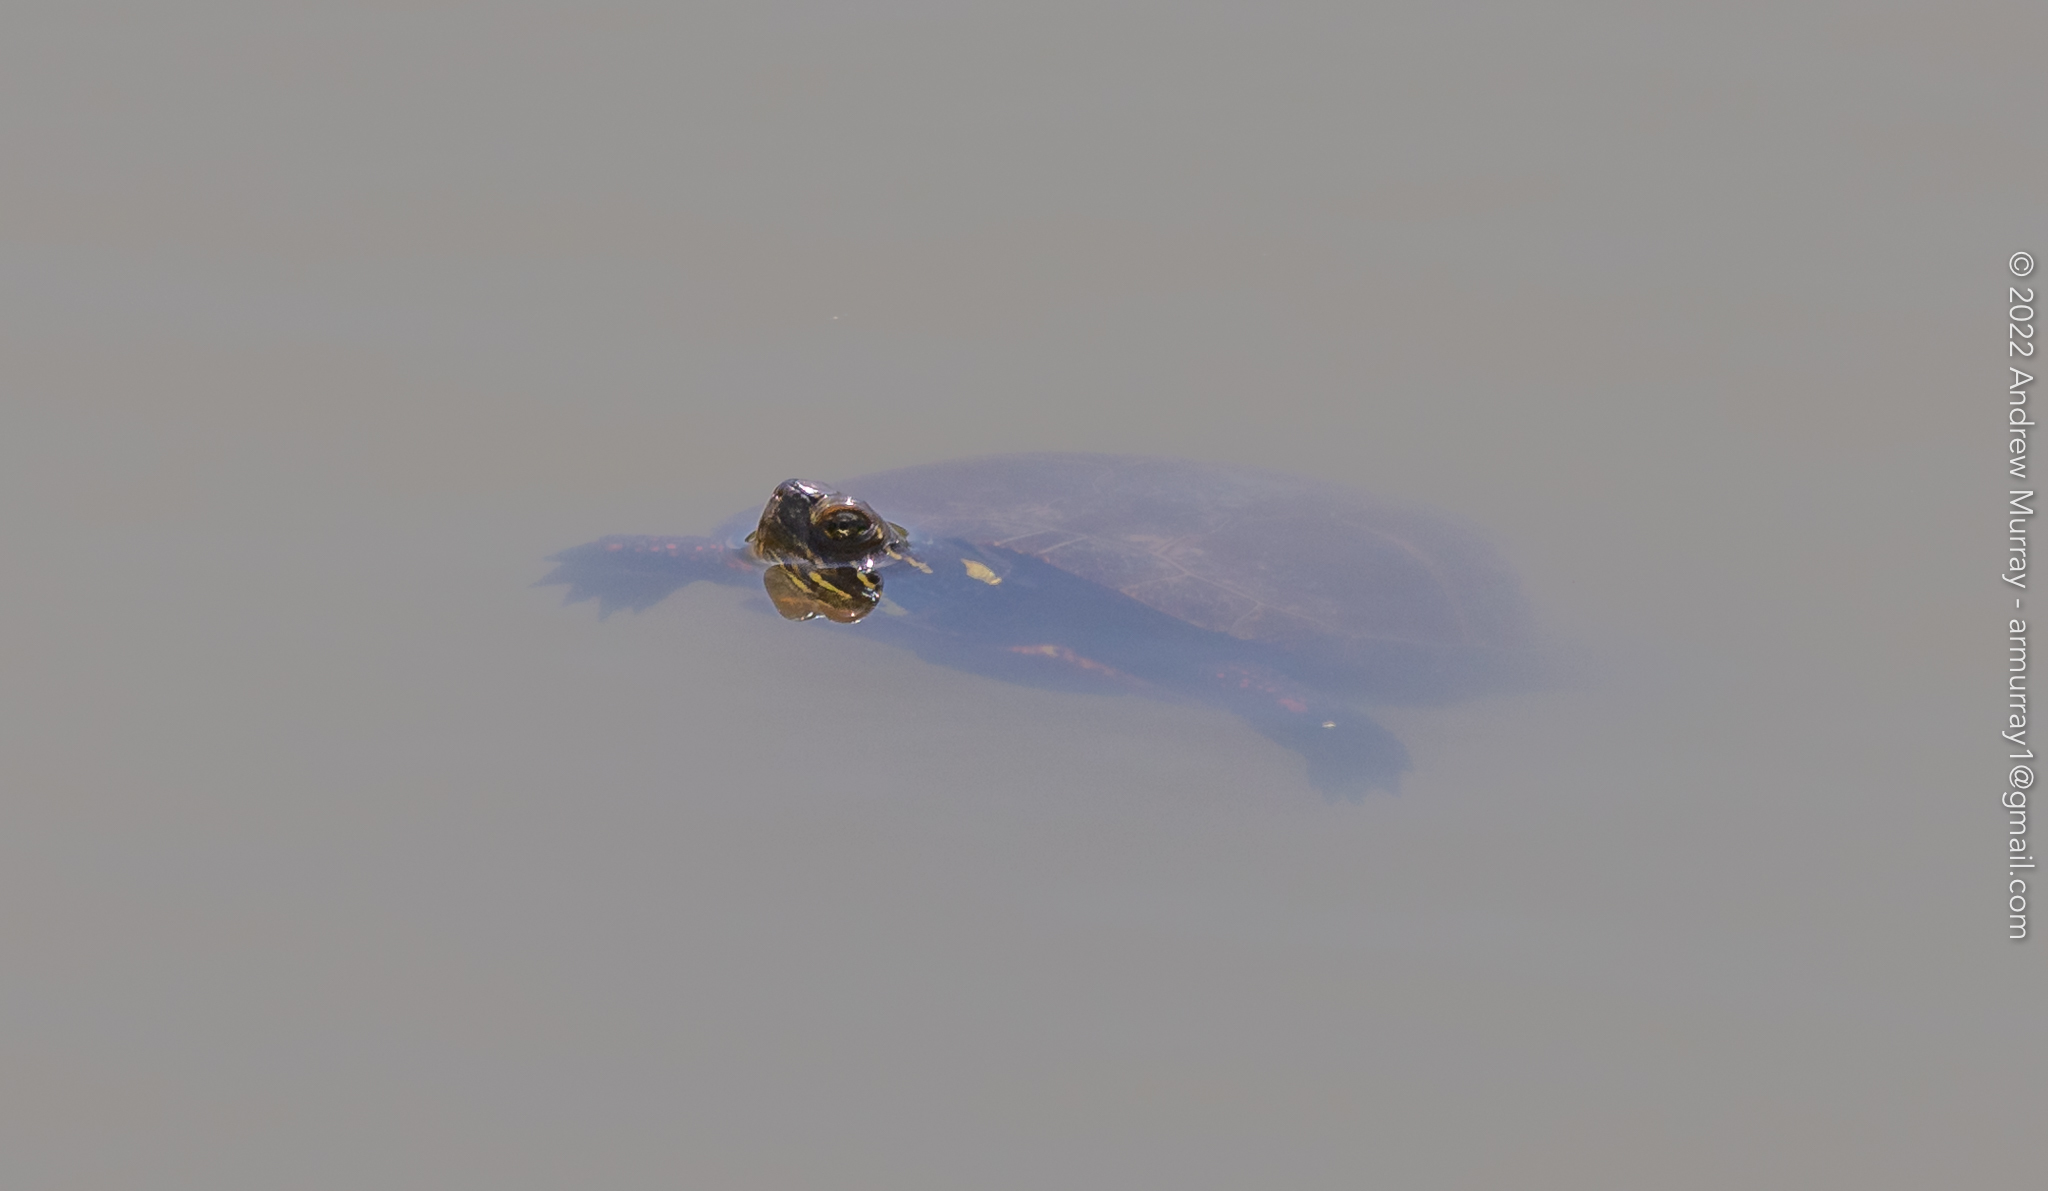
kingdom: Animalia
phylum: Chordata
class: Testudines
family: Emydidae
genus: Chrysemys
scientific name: Chrysemys picta
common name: Painted turtle
